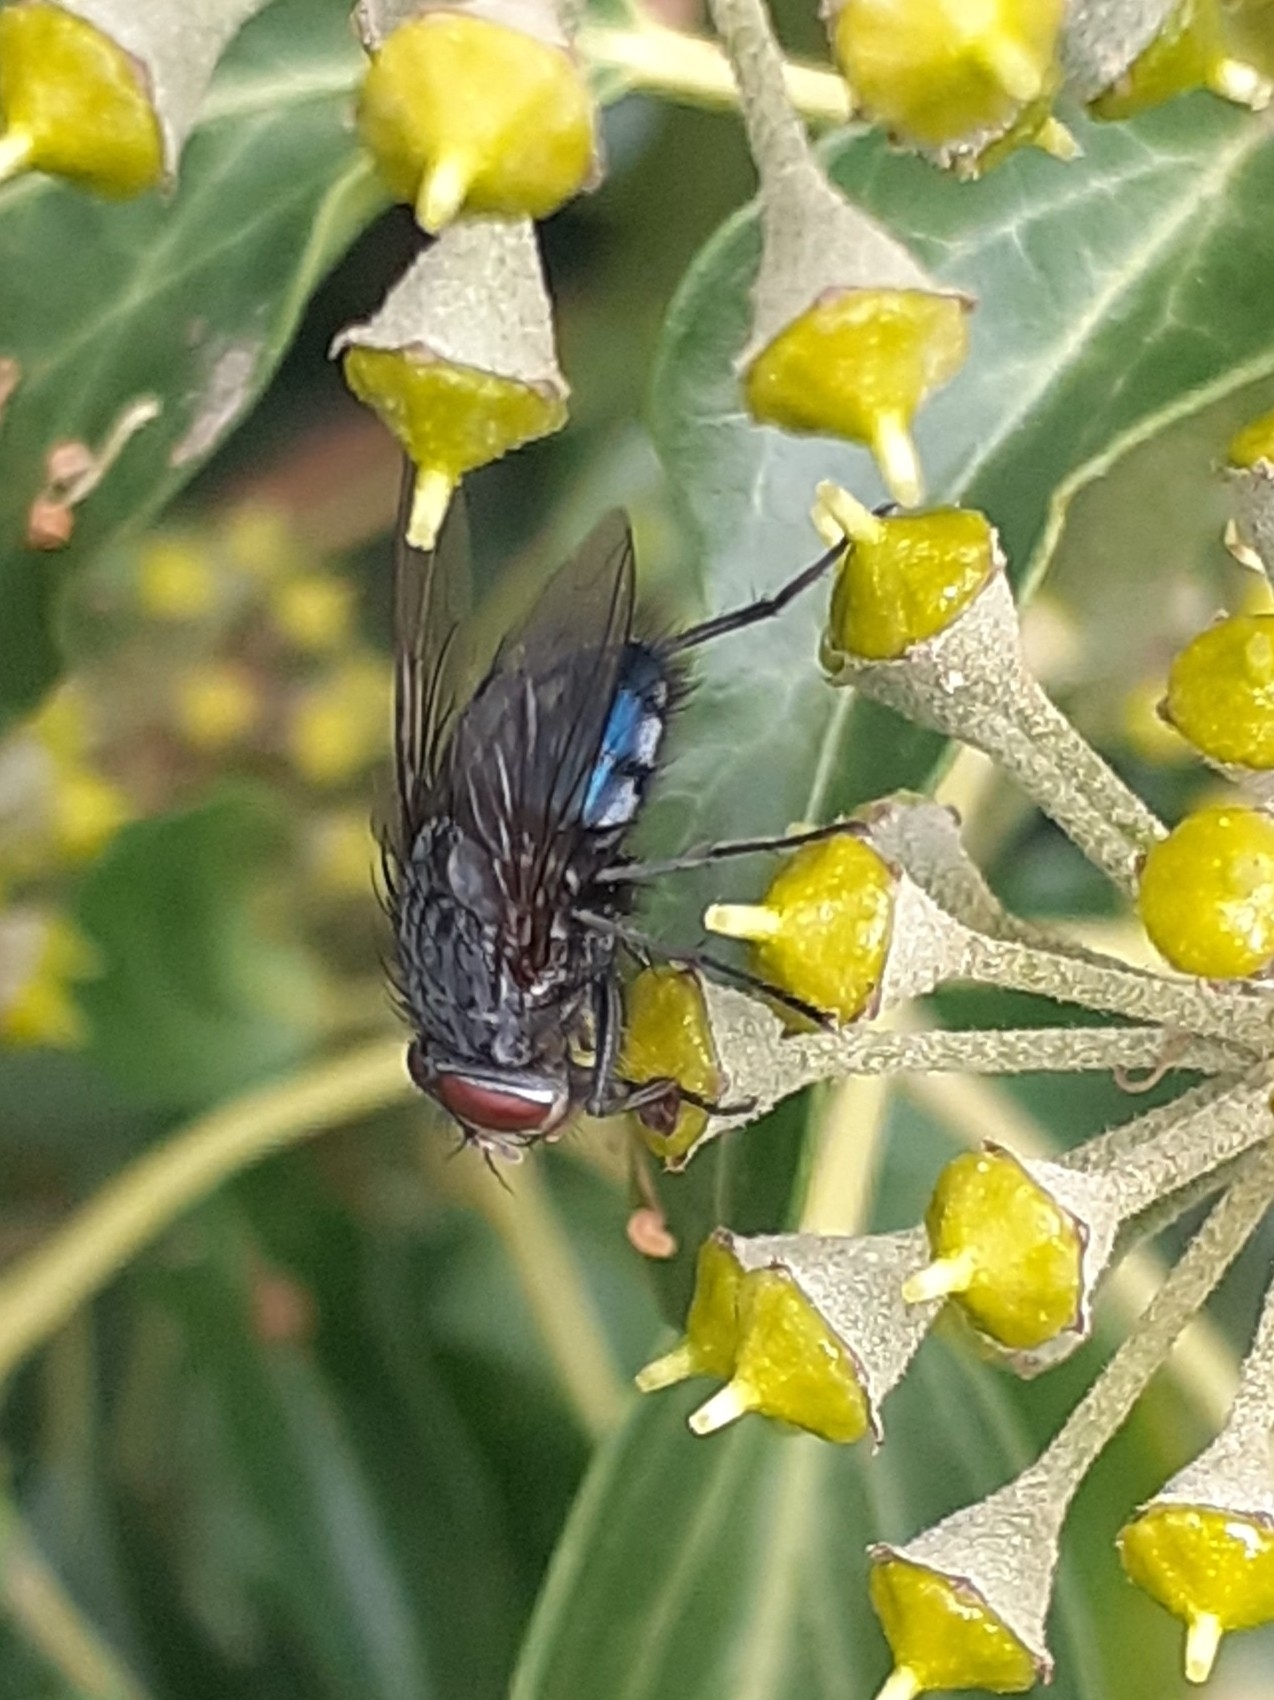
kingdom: Animalia
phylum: Arthropoda
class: Insecta
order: Diptera
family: Calliphoridae
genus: Calliphora
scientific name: Calliphora vicina
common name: Common blow flie
